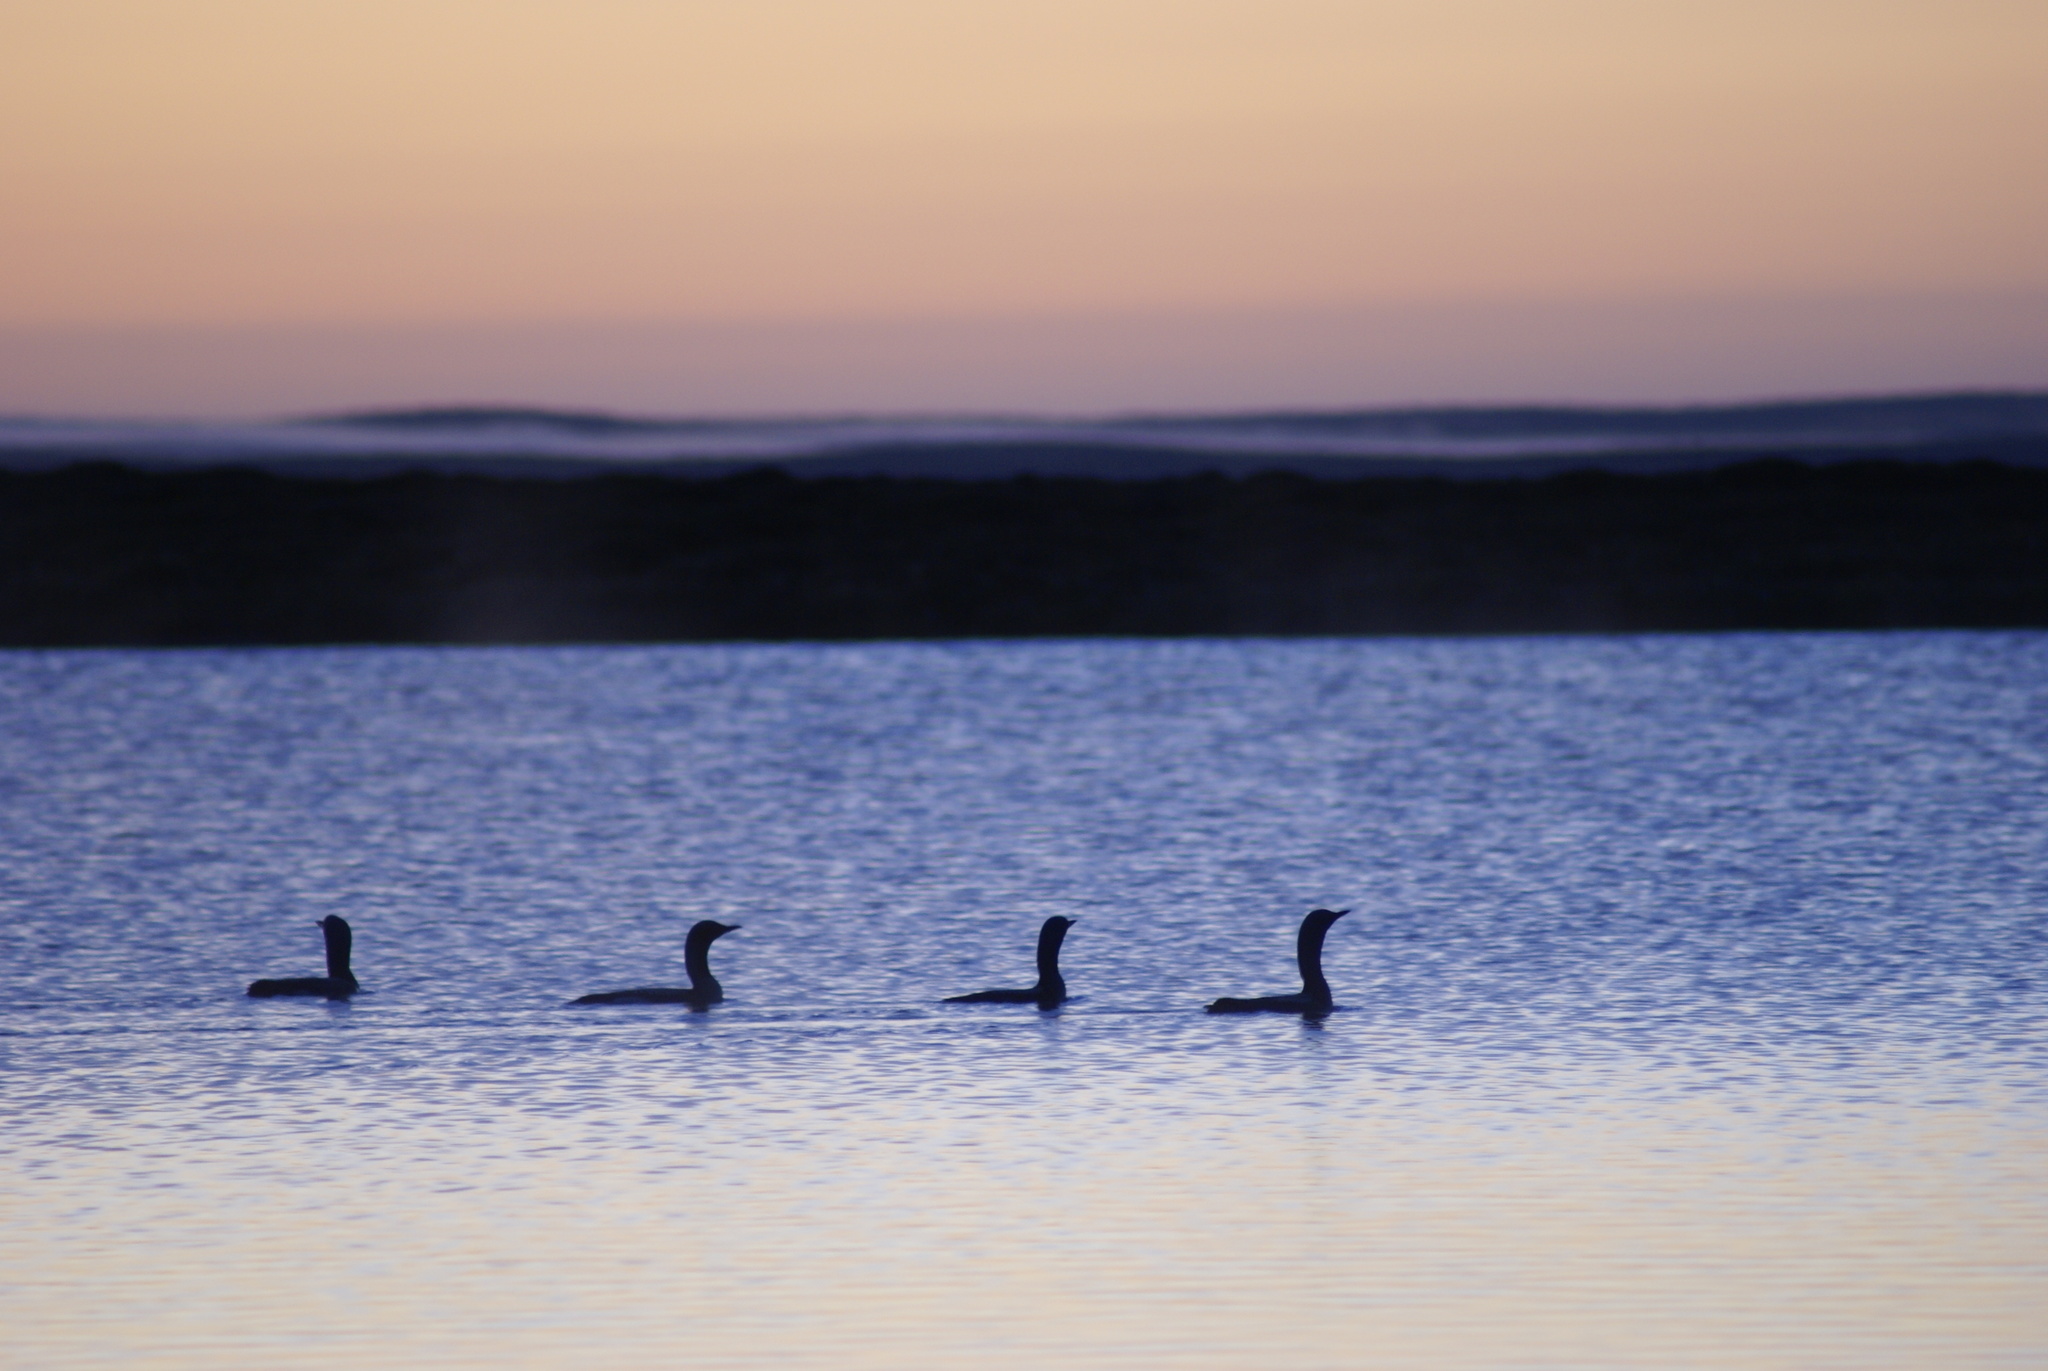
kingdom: Animalia
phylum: Chordata
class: Aves
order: Gaviiformes
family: Gaviidae
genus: Gavia
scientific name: Gavia arctica
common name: Black-throated loon
